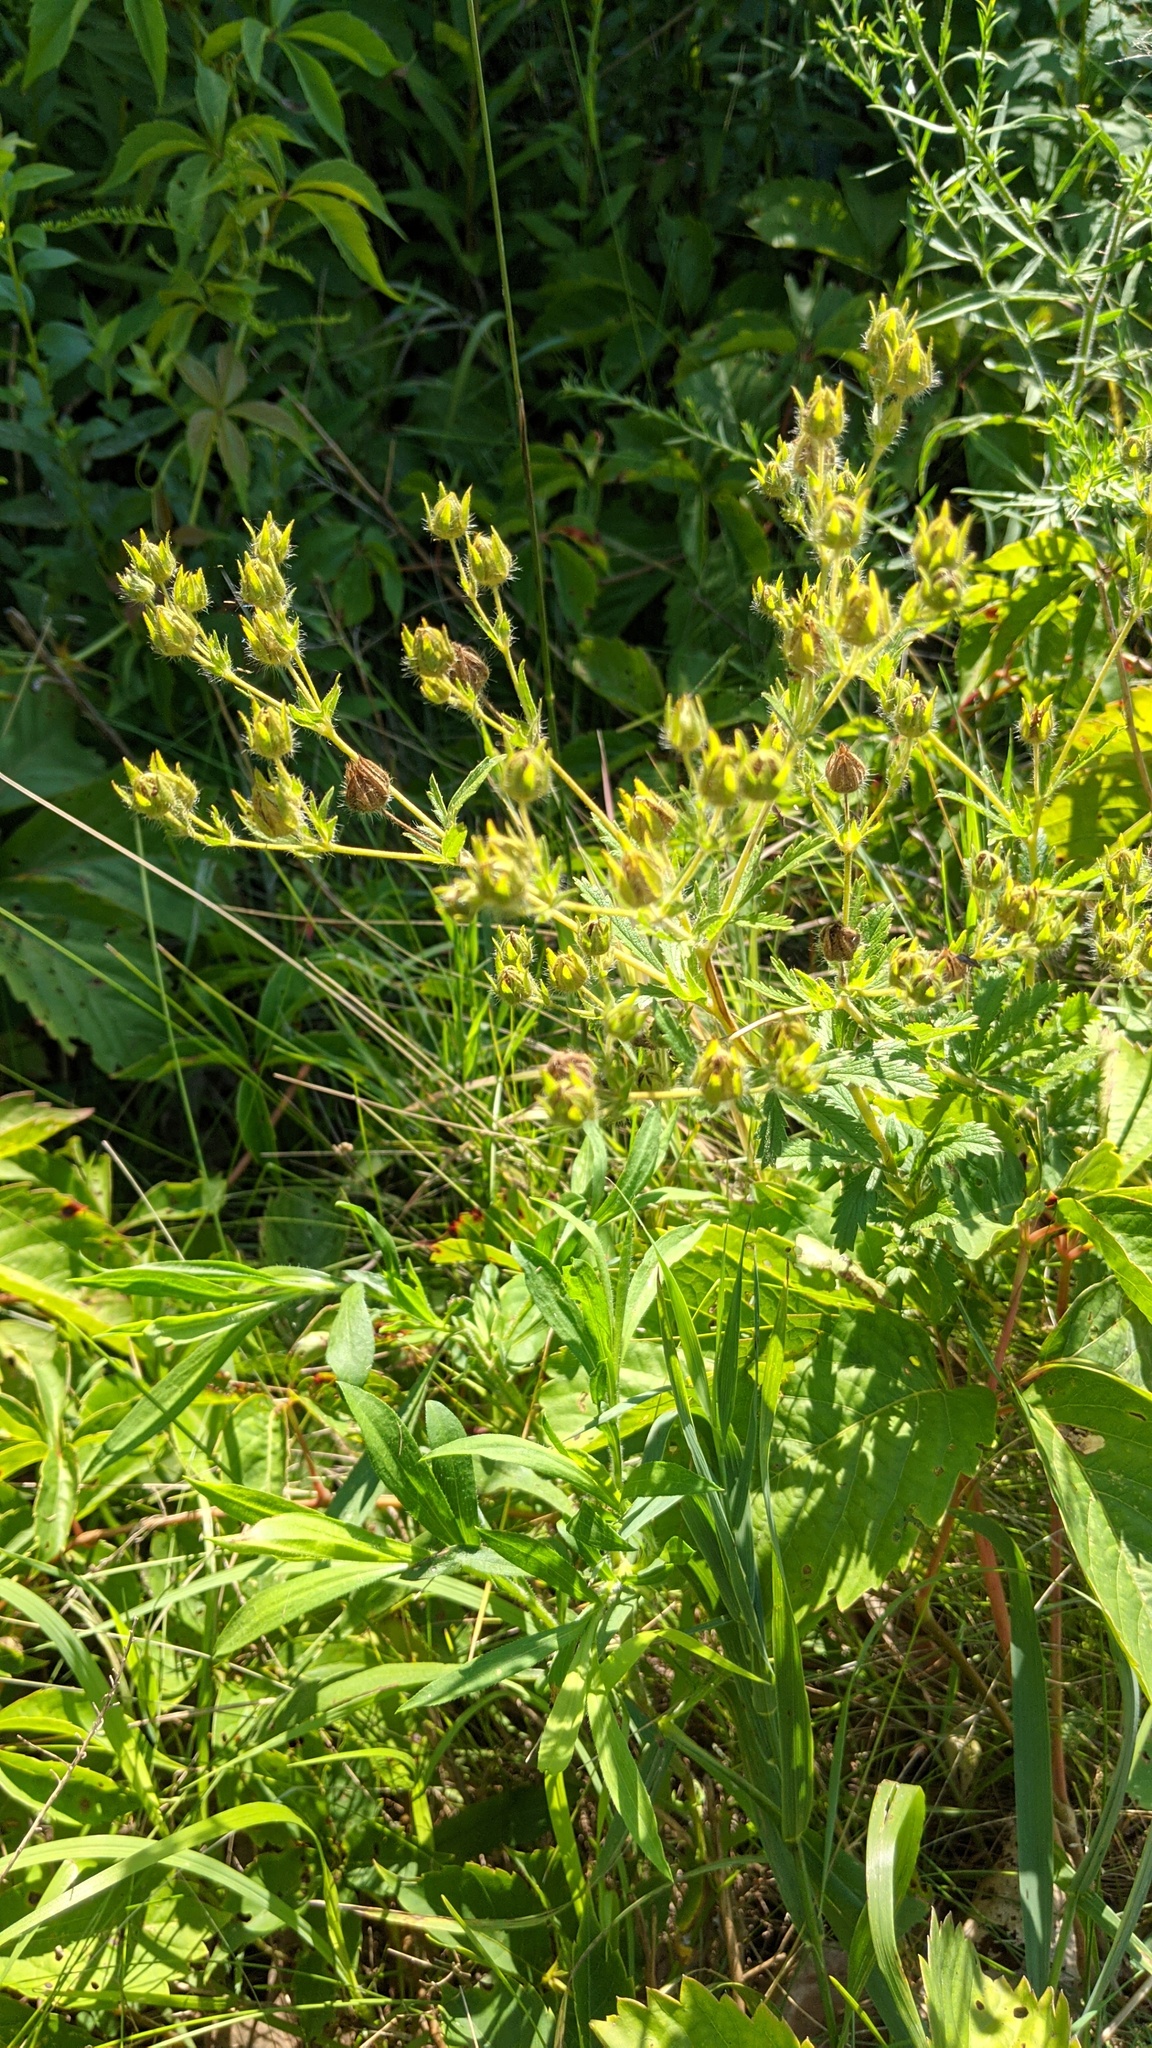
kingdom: Plantae
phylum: Tracheophyta
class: Magnoliopsida
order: Rosales
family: Rosaceae
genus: Potentilla
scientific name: Potentilla recta
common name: Sulphur cinquefoil
